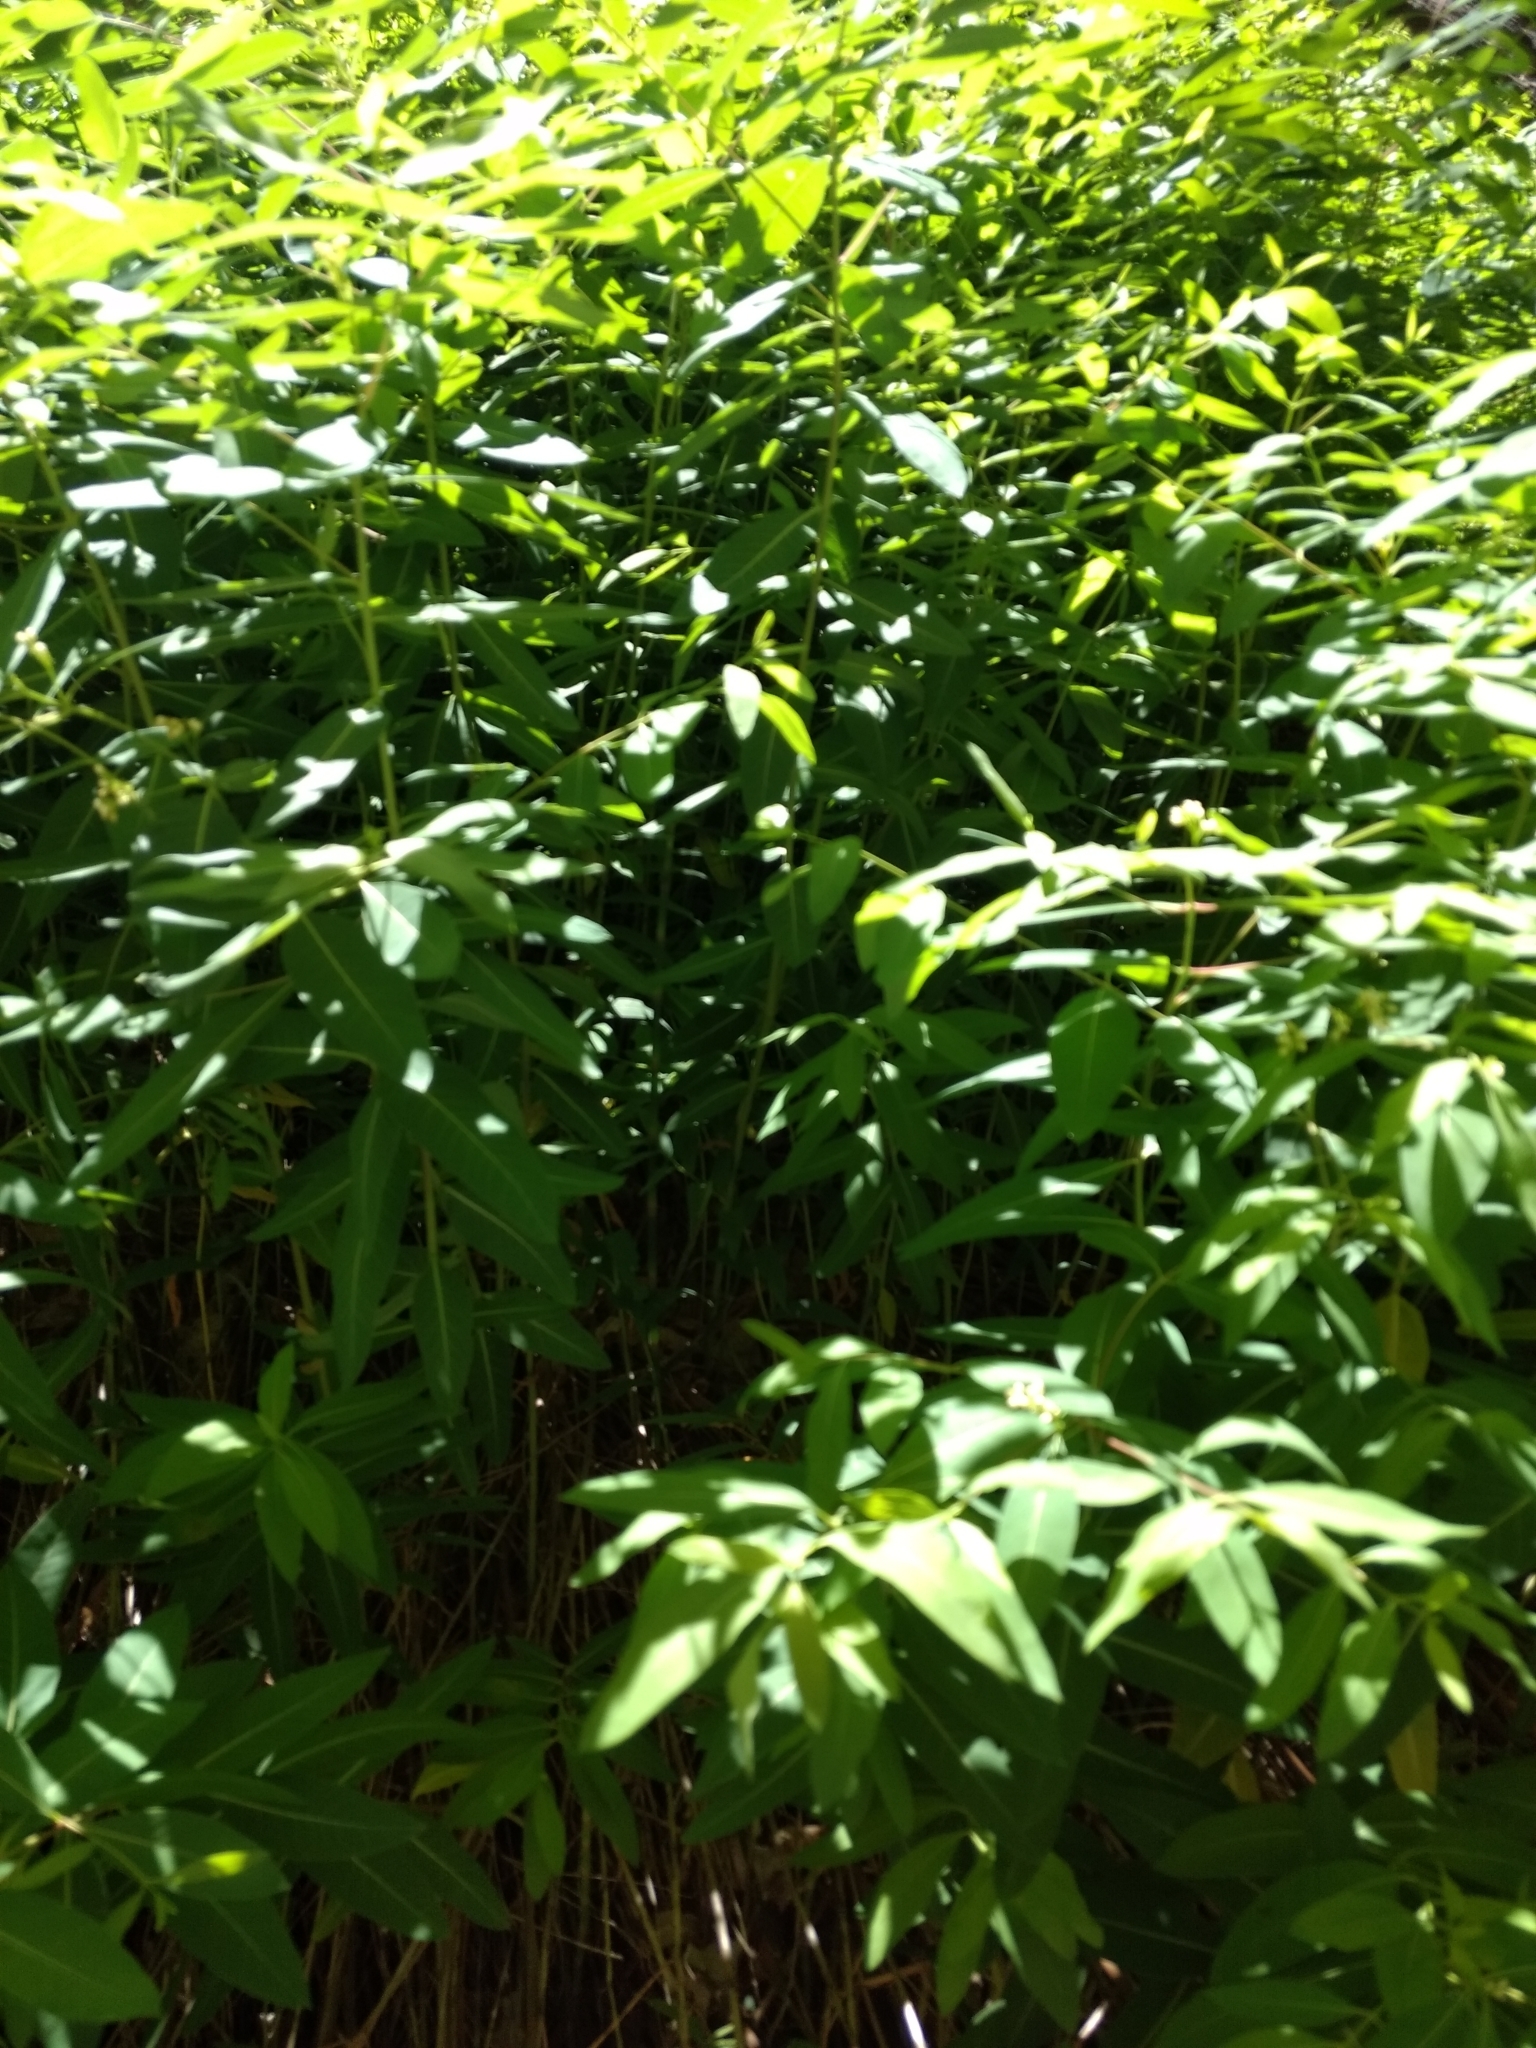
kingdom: Plantae
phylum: Tracheophyta
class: Magnoliopsida
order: Gentianales
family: Apocynaceae
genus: Apocynum
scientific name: Apocynum cannabinum
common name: Hemp dogbane
